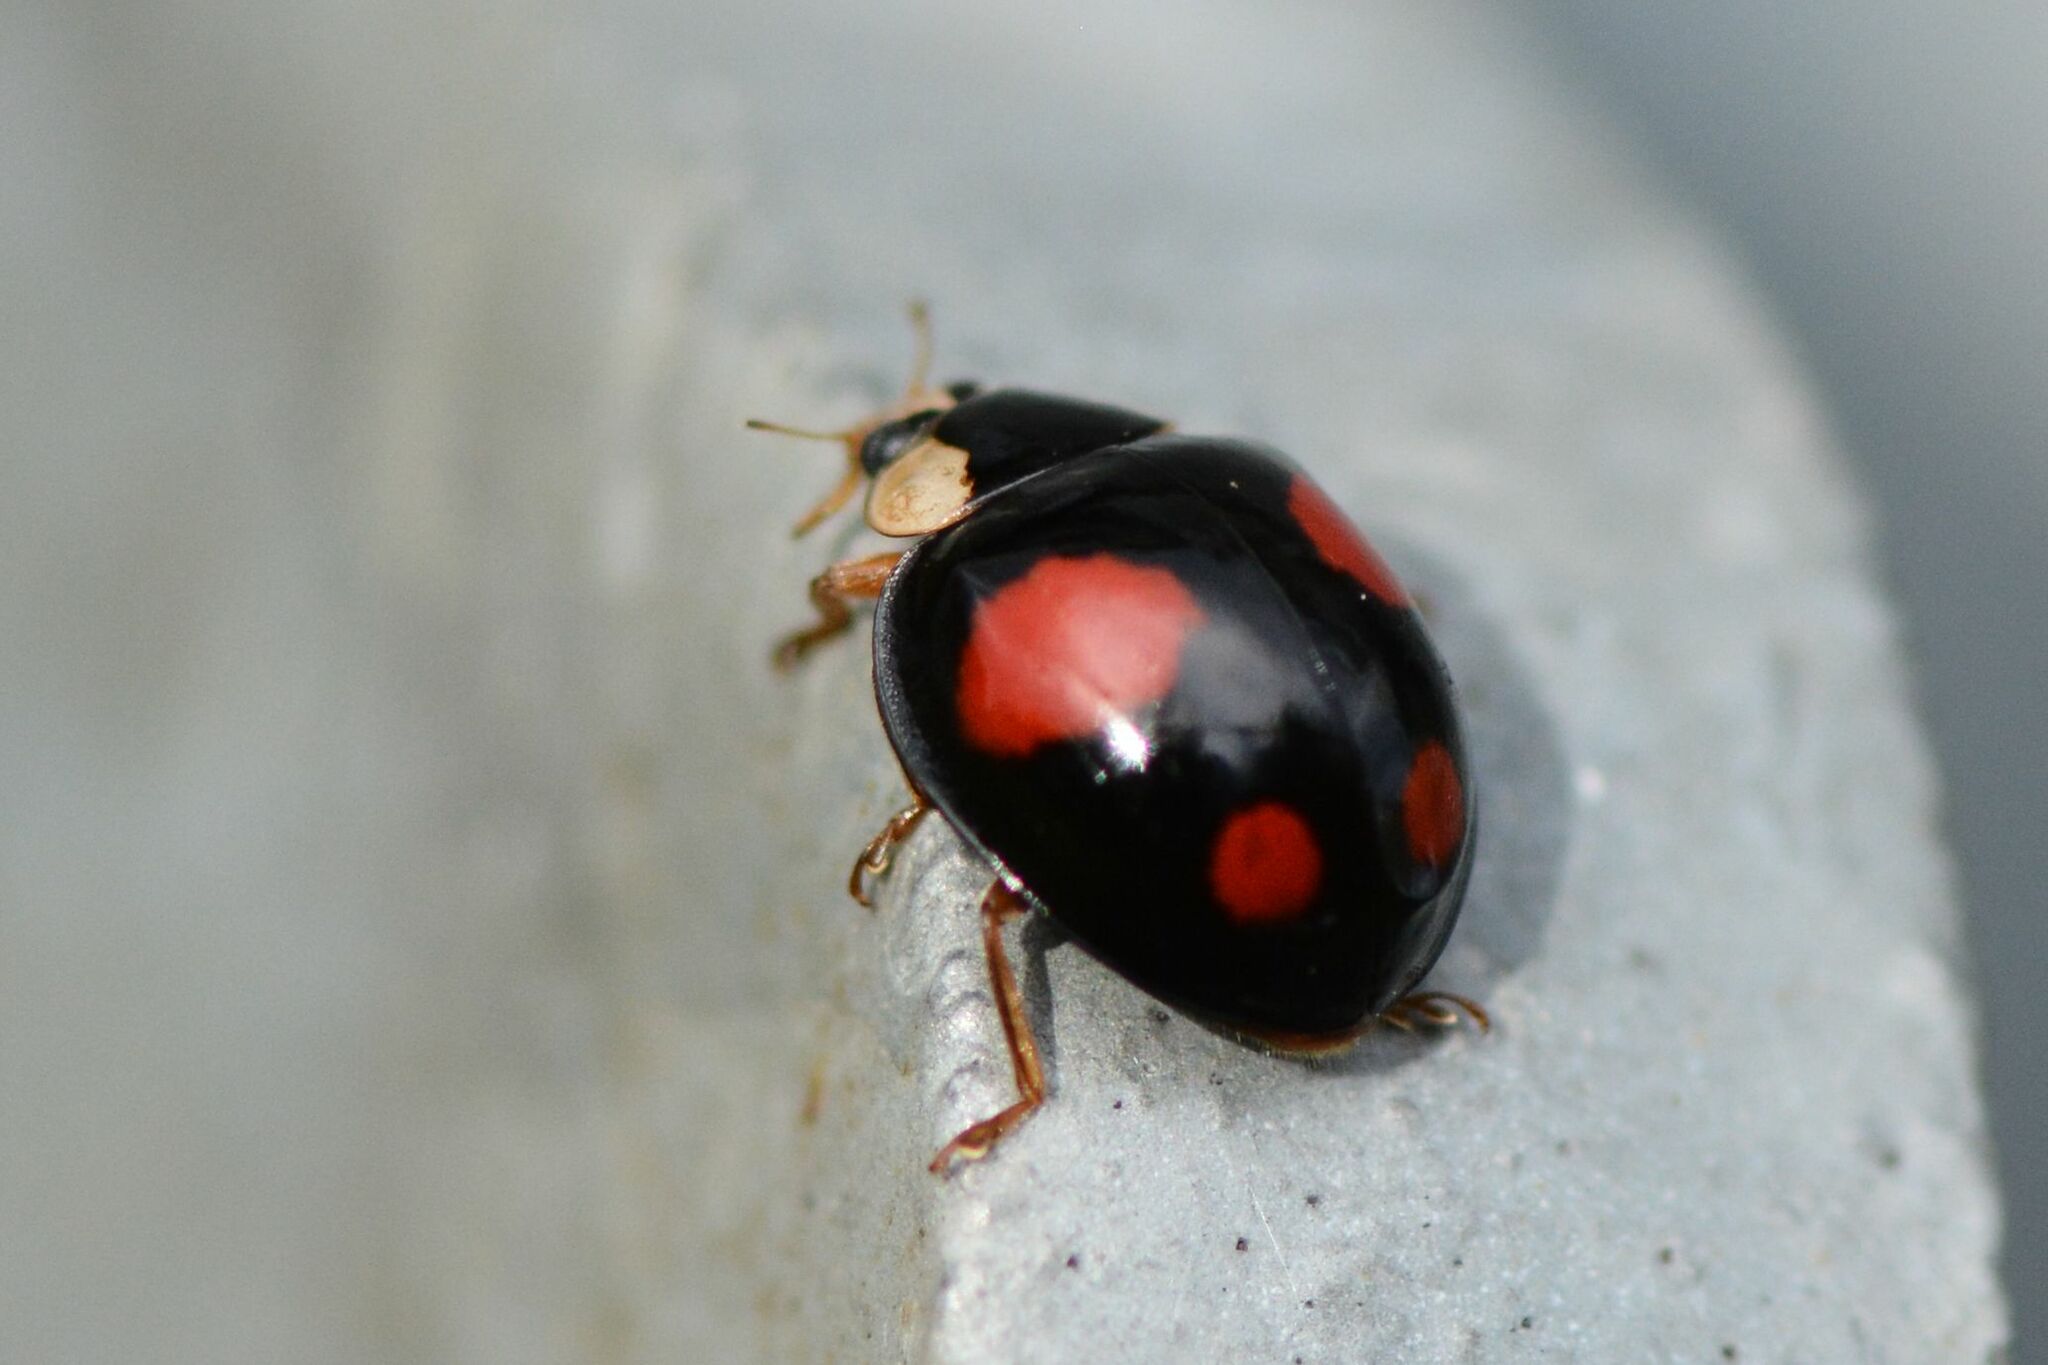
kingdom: Animalia
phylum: Arthropoda
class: Insecta
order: Coleoptera
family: Coccinellidae
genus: Harmonia
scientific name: Harmonia axyridis
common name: Harlequin ladybird
